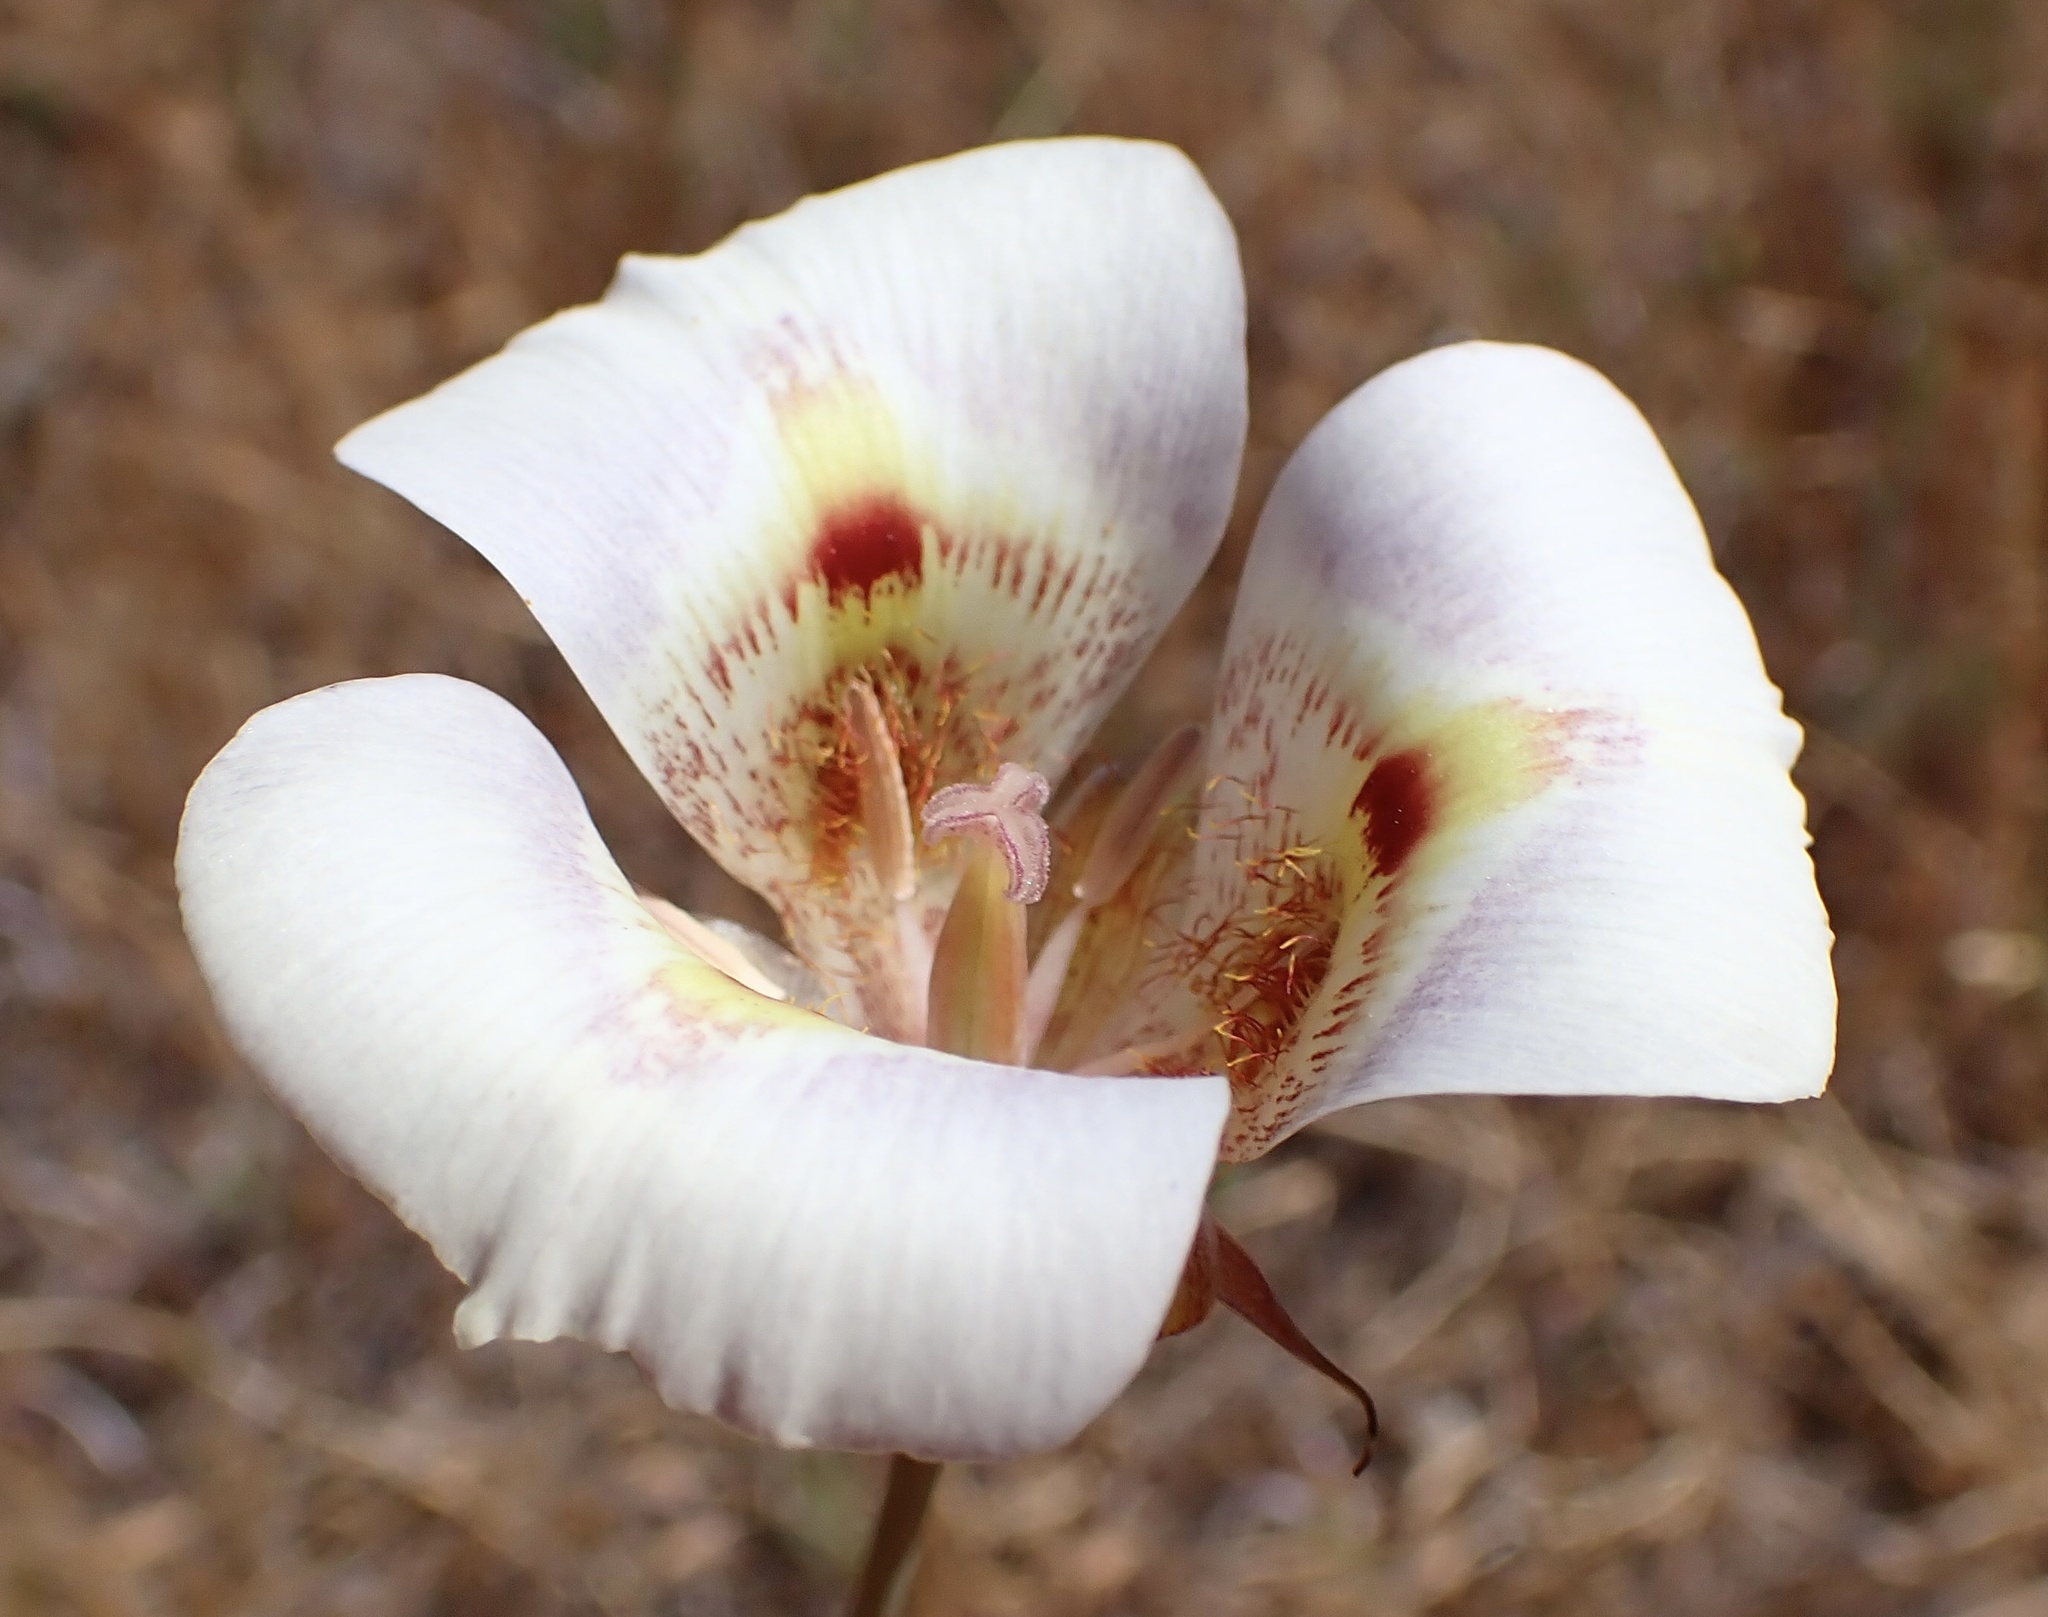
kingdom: Plantae
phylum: Tracheophyta
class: Liliopsida
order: Liliales
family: Liliaceae
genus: Calochortus
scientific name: Calochortus argillosus
